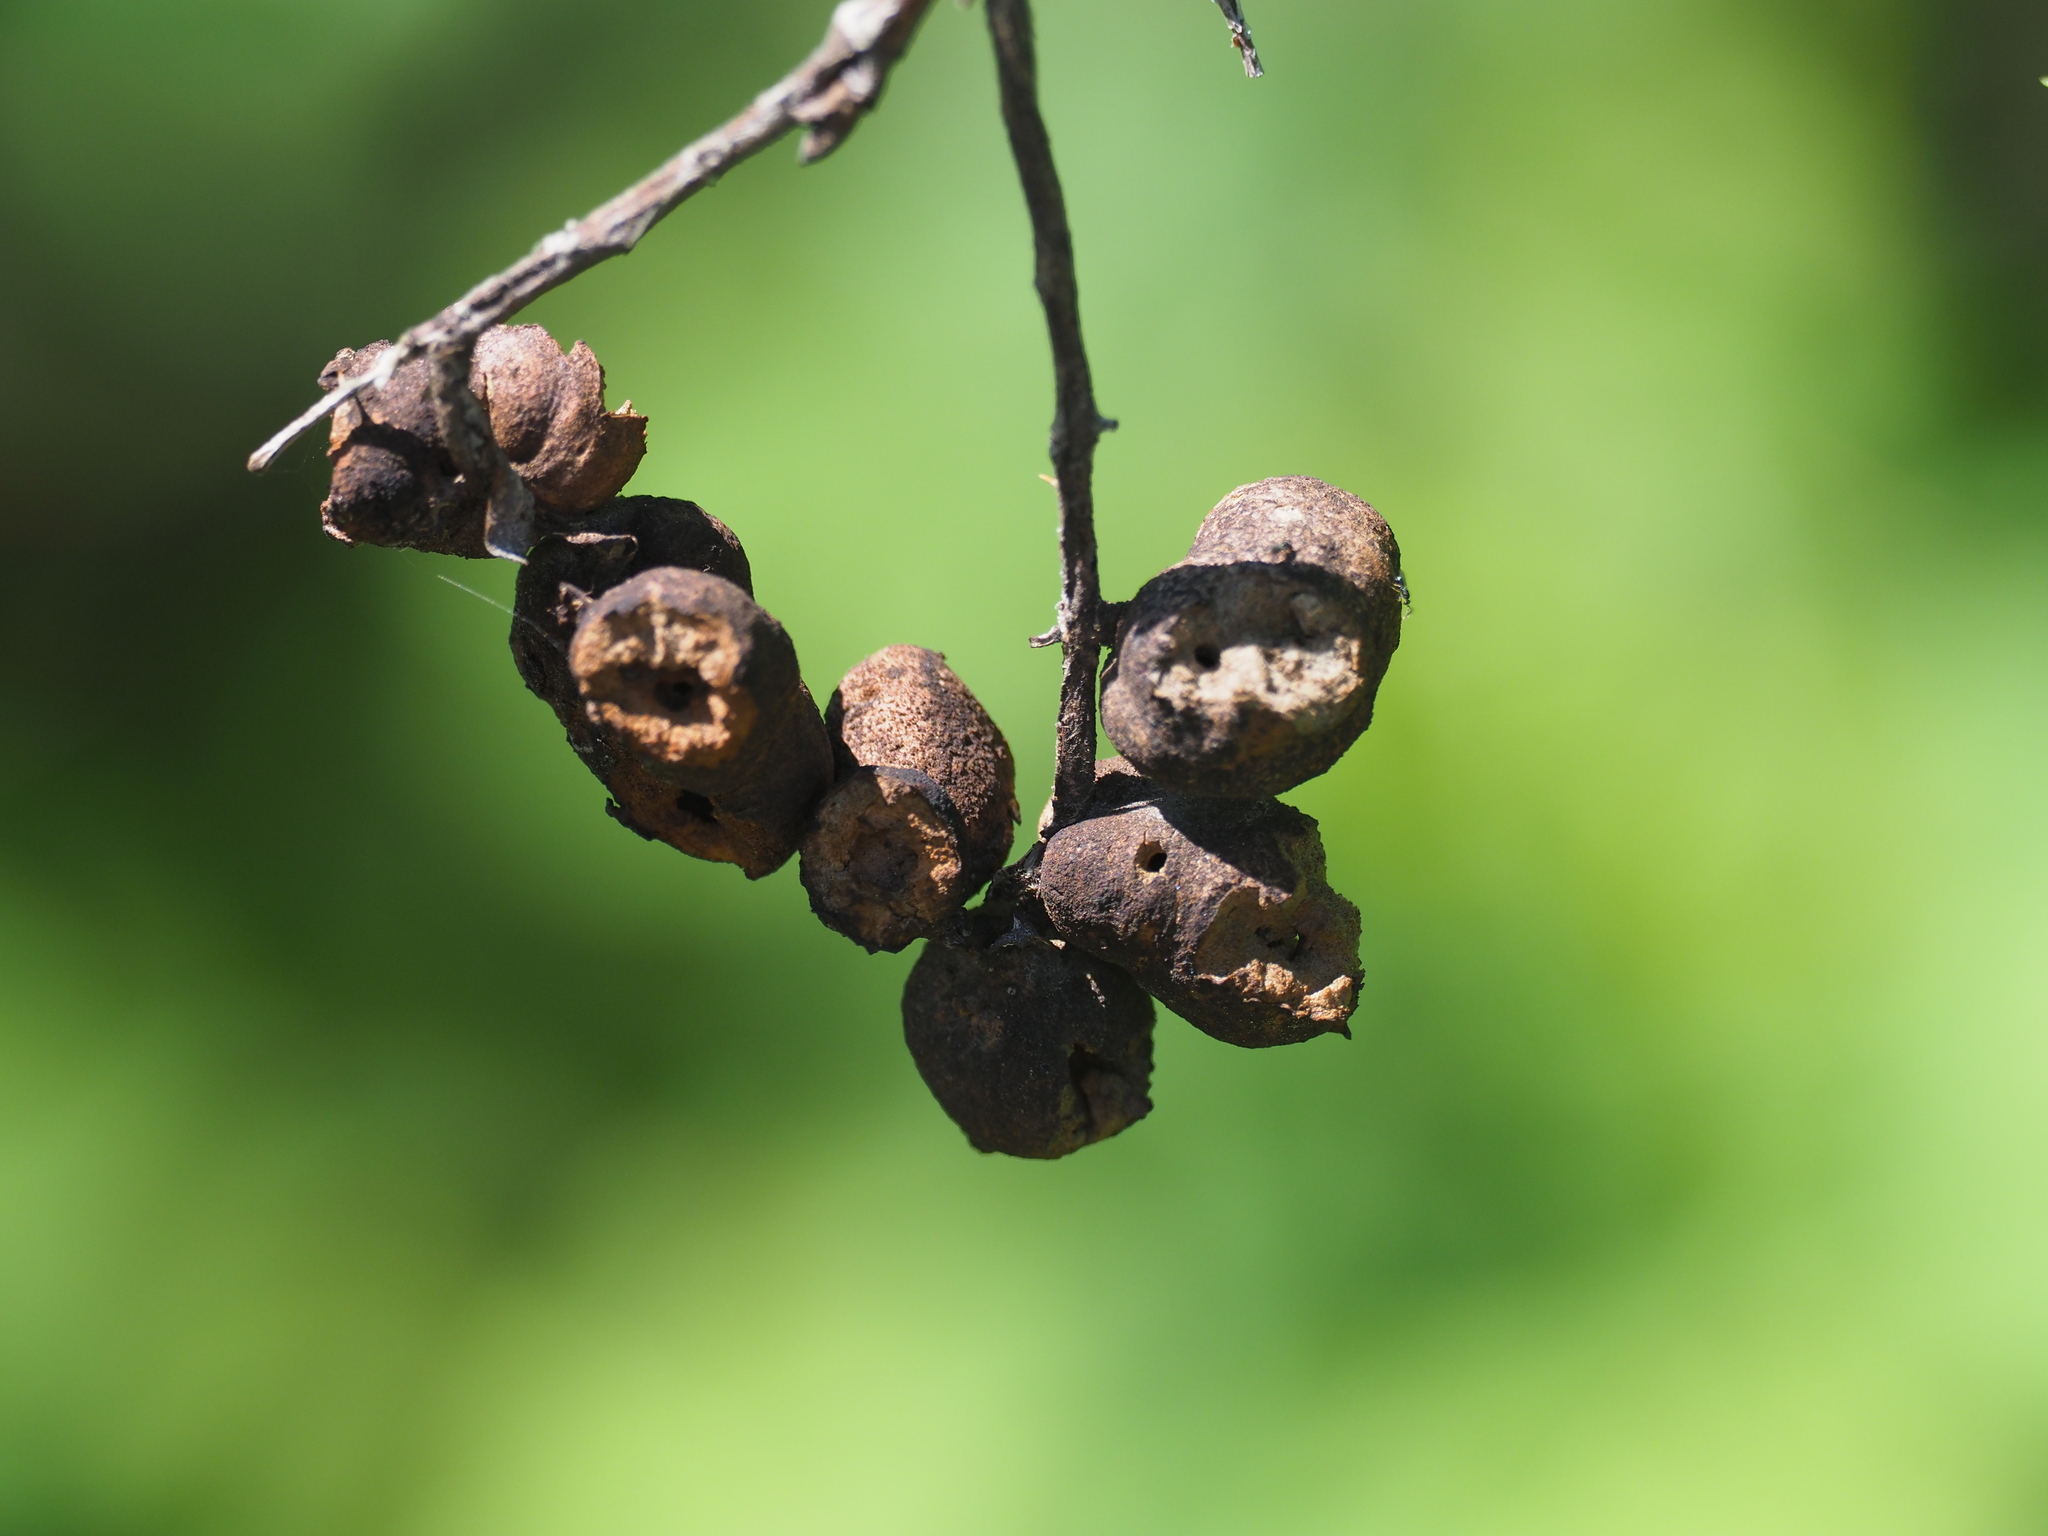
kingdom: Animalia
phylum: Arthropoda
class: Insecta
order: Hymenoptera
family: Cynipidae
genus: Diplolepis
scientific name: Diplolepis variabilis
